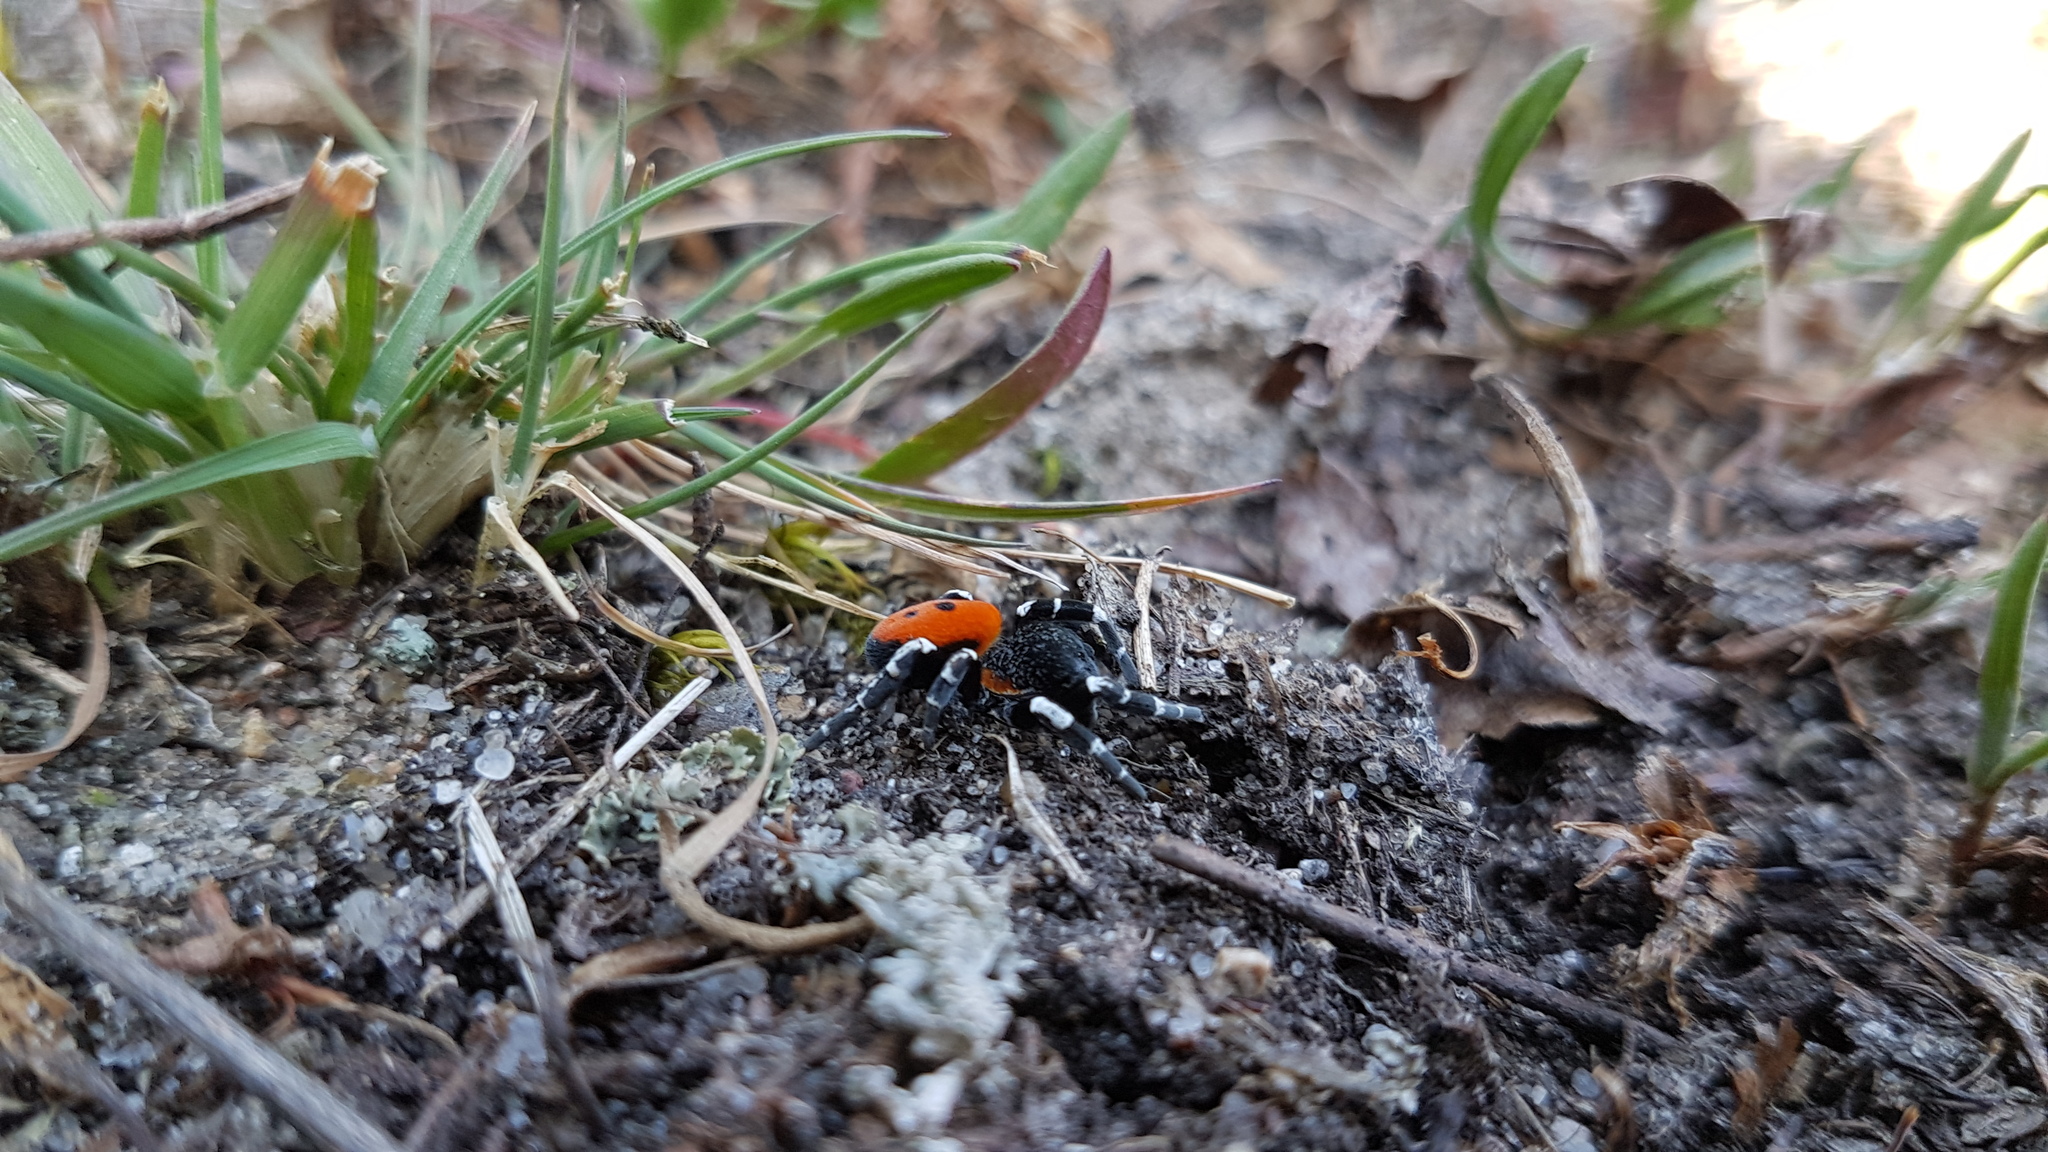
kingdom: Animalia
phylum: Arthropoda
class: Arachnida
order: Araneae
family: Eresidae
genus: Eresus
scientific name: Eresus sandaliatus
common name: Ladybird spider
